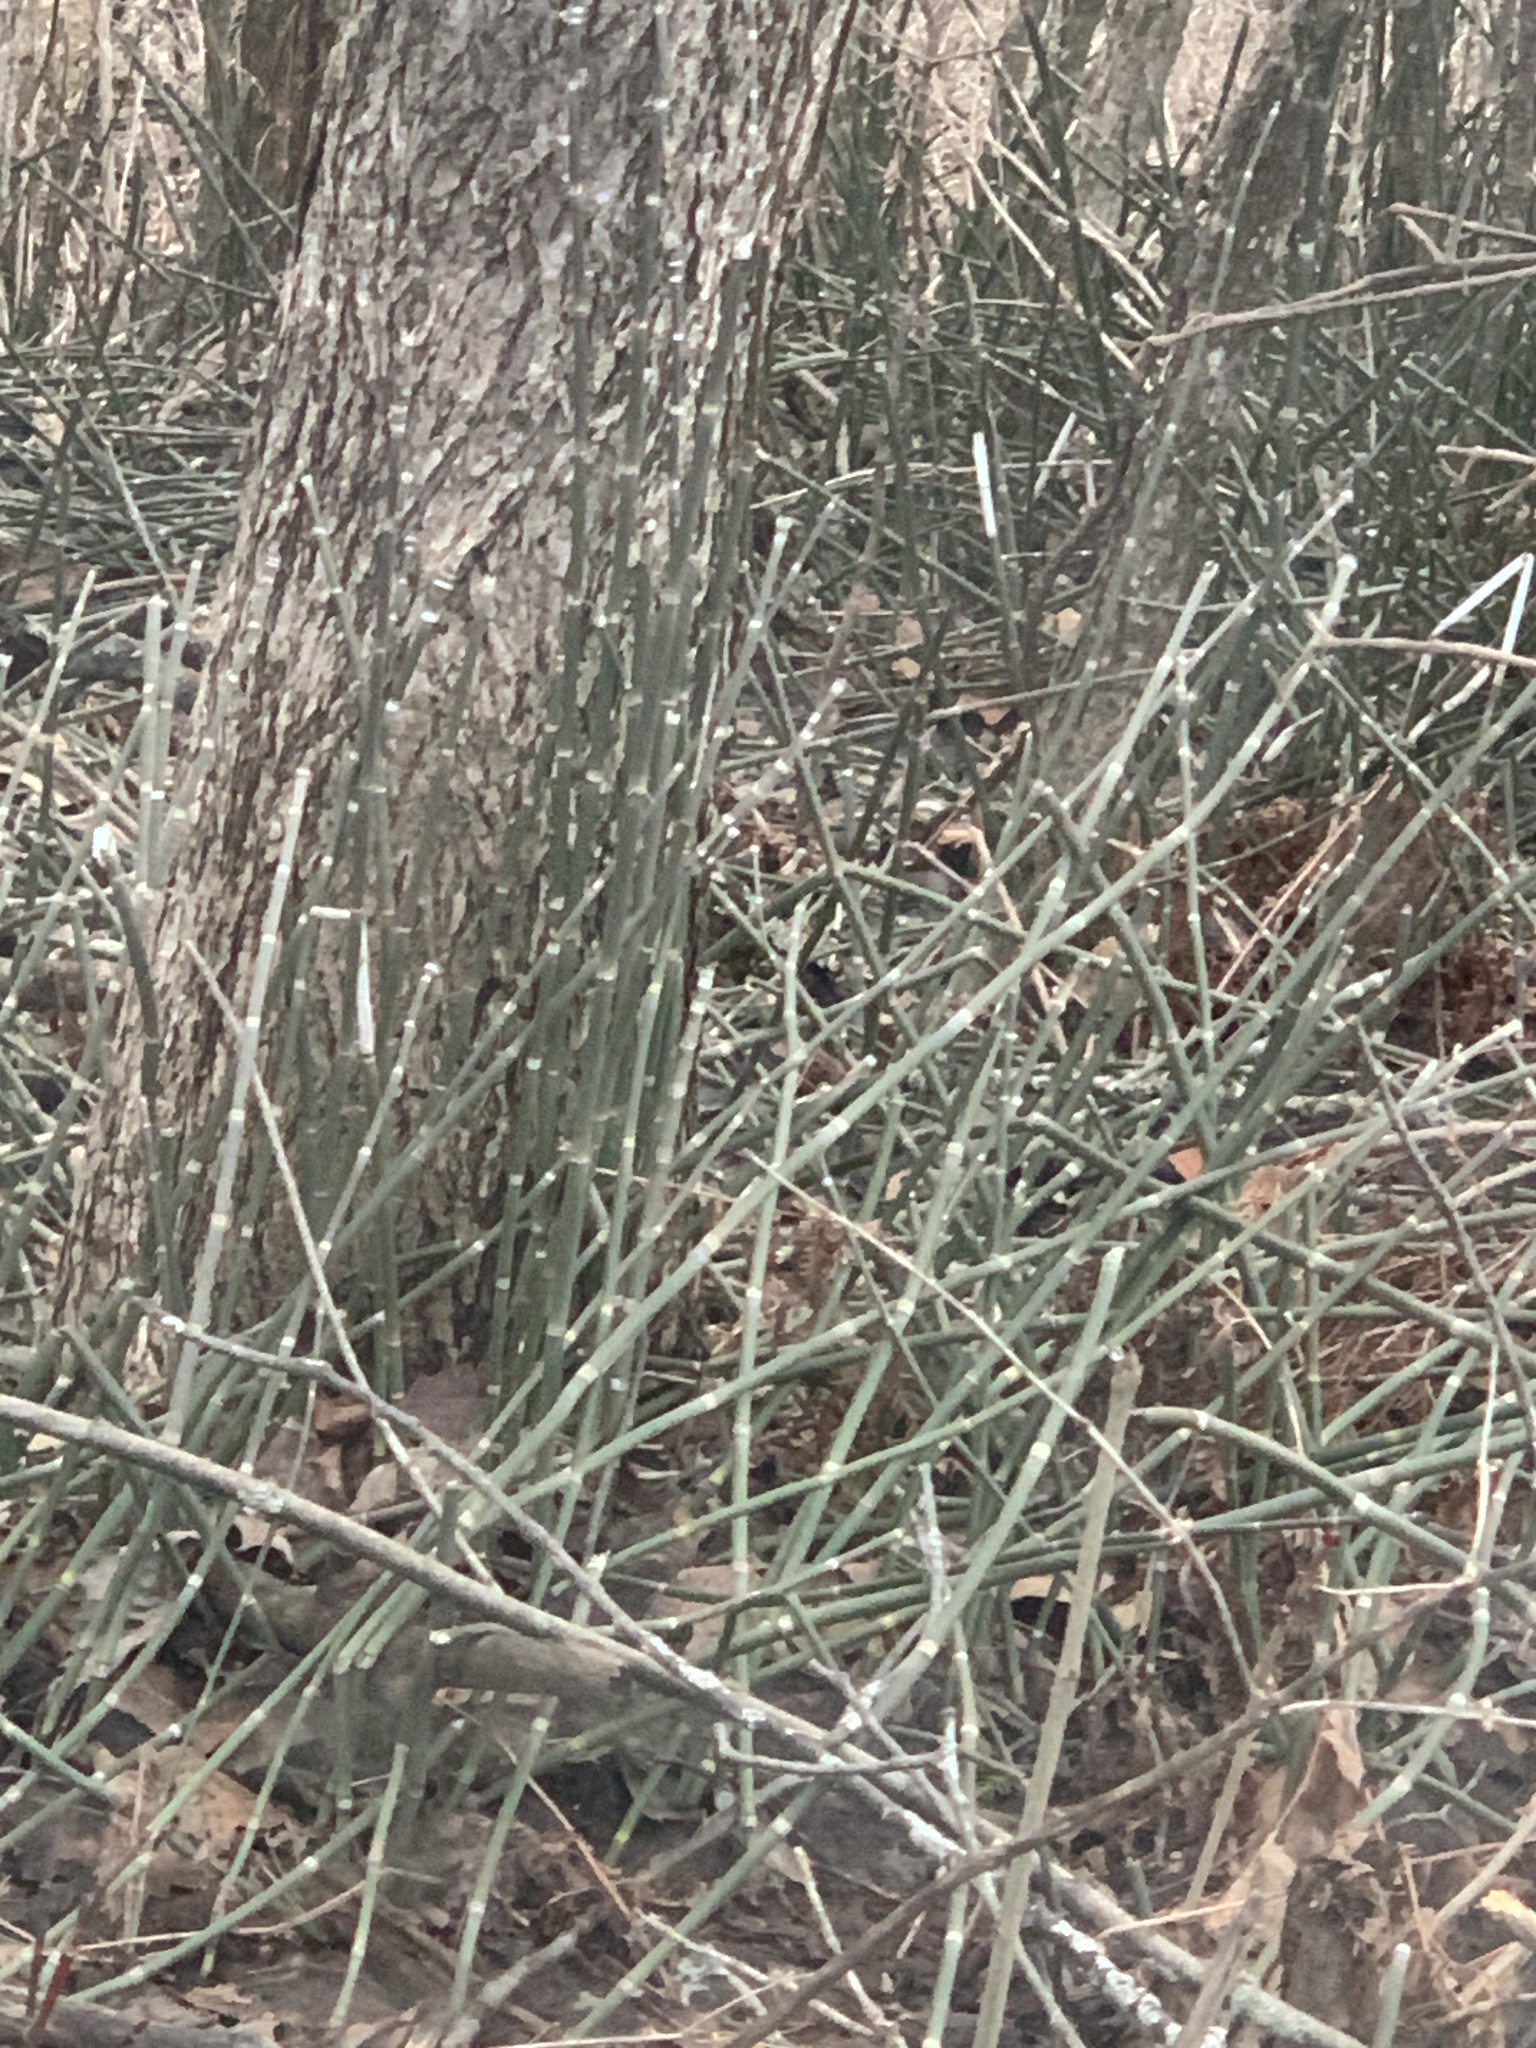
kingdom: Plantae
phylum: Tracheophyta
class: Polypodiopsida
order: Equisetales
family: Equisetaceae
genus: Equisetum
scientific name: Equisetum hyemale
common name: Rough horsetail
